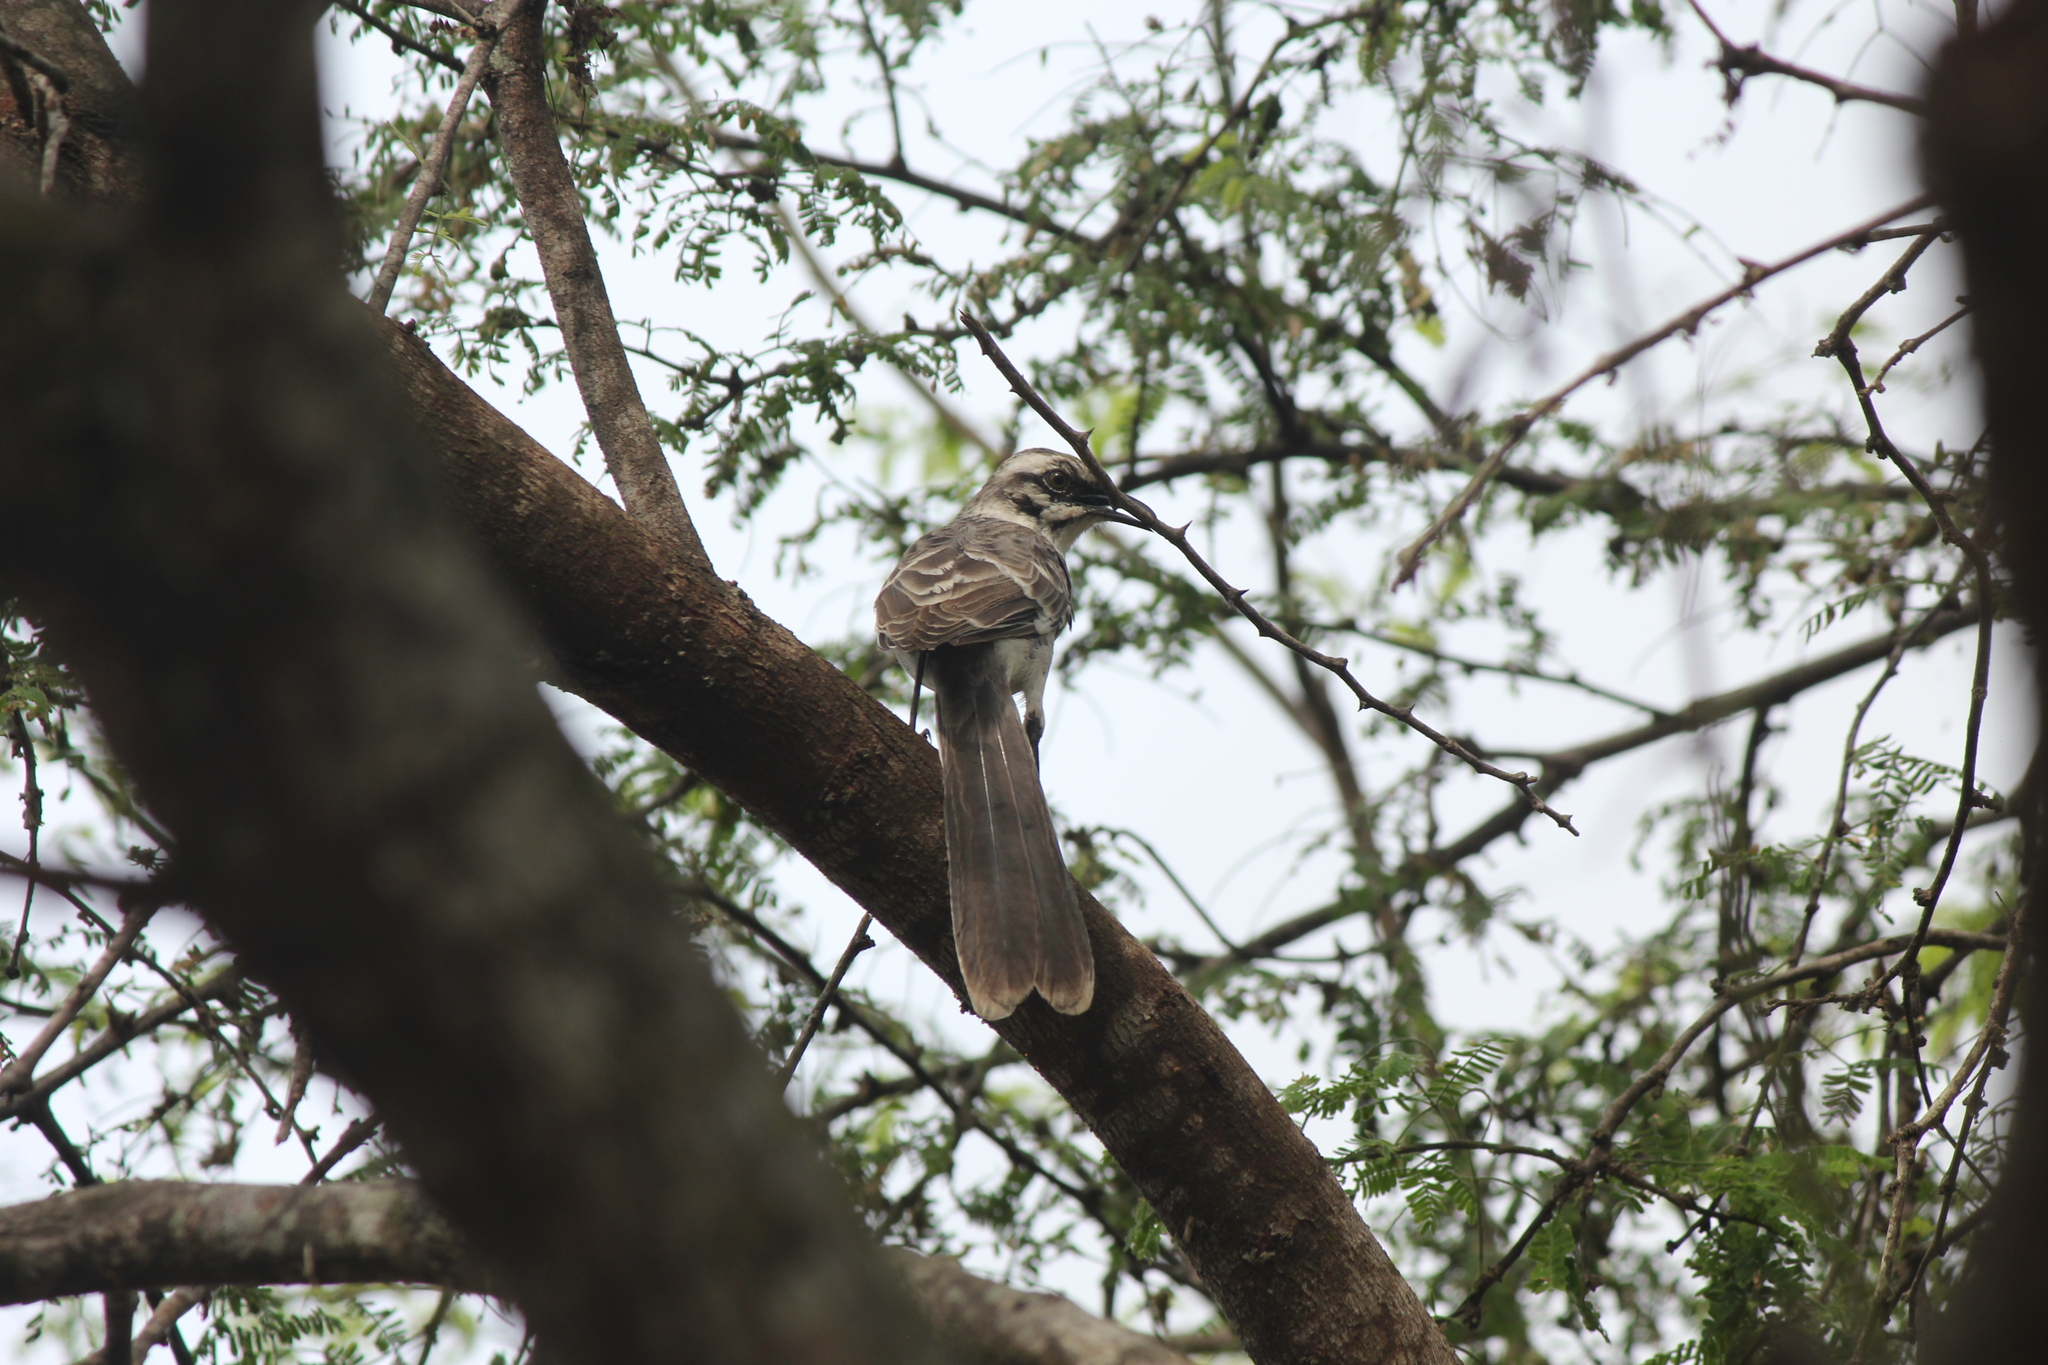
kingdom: Animalia
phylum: Chordata
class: Aves
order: Passeriformes
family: Mimidae
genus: Mimus
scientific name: Mimus longicaudatus
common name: Long-tailed mockingbird
